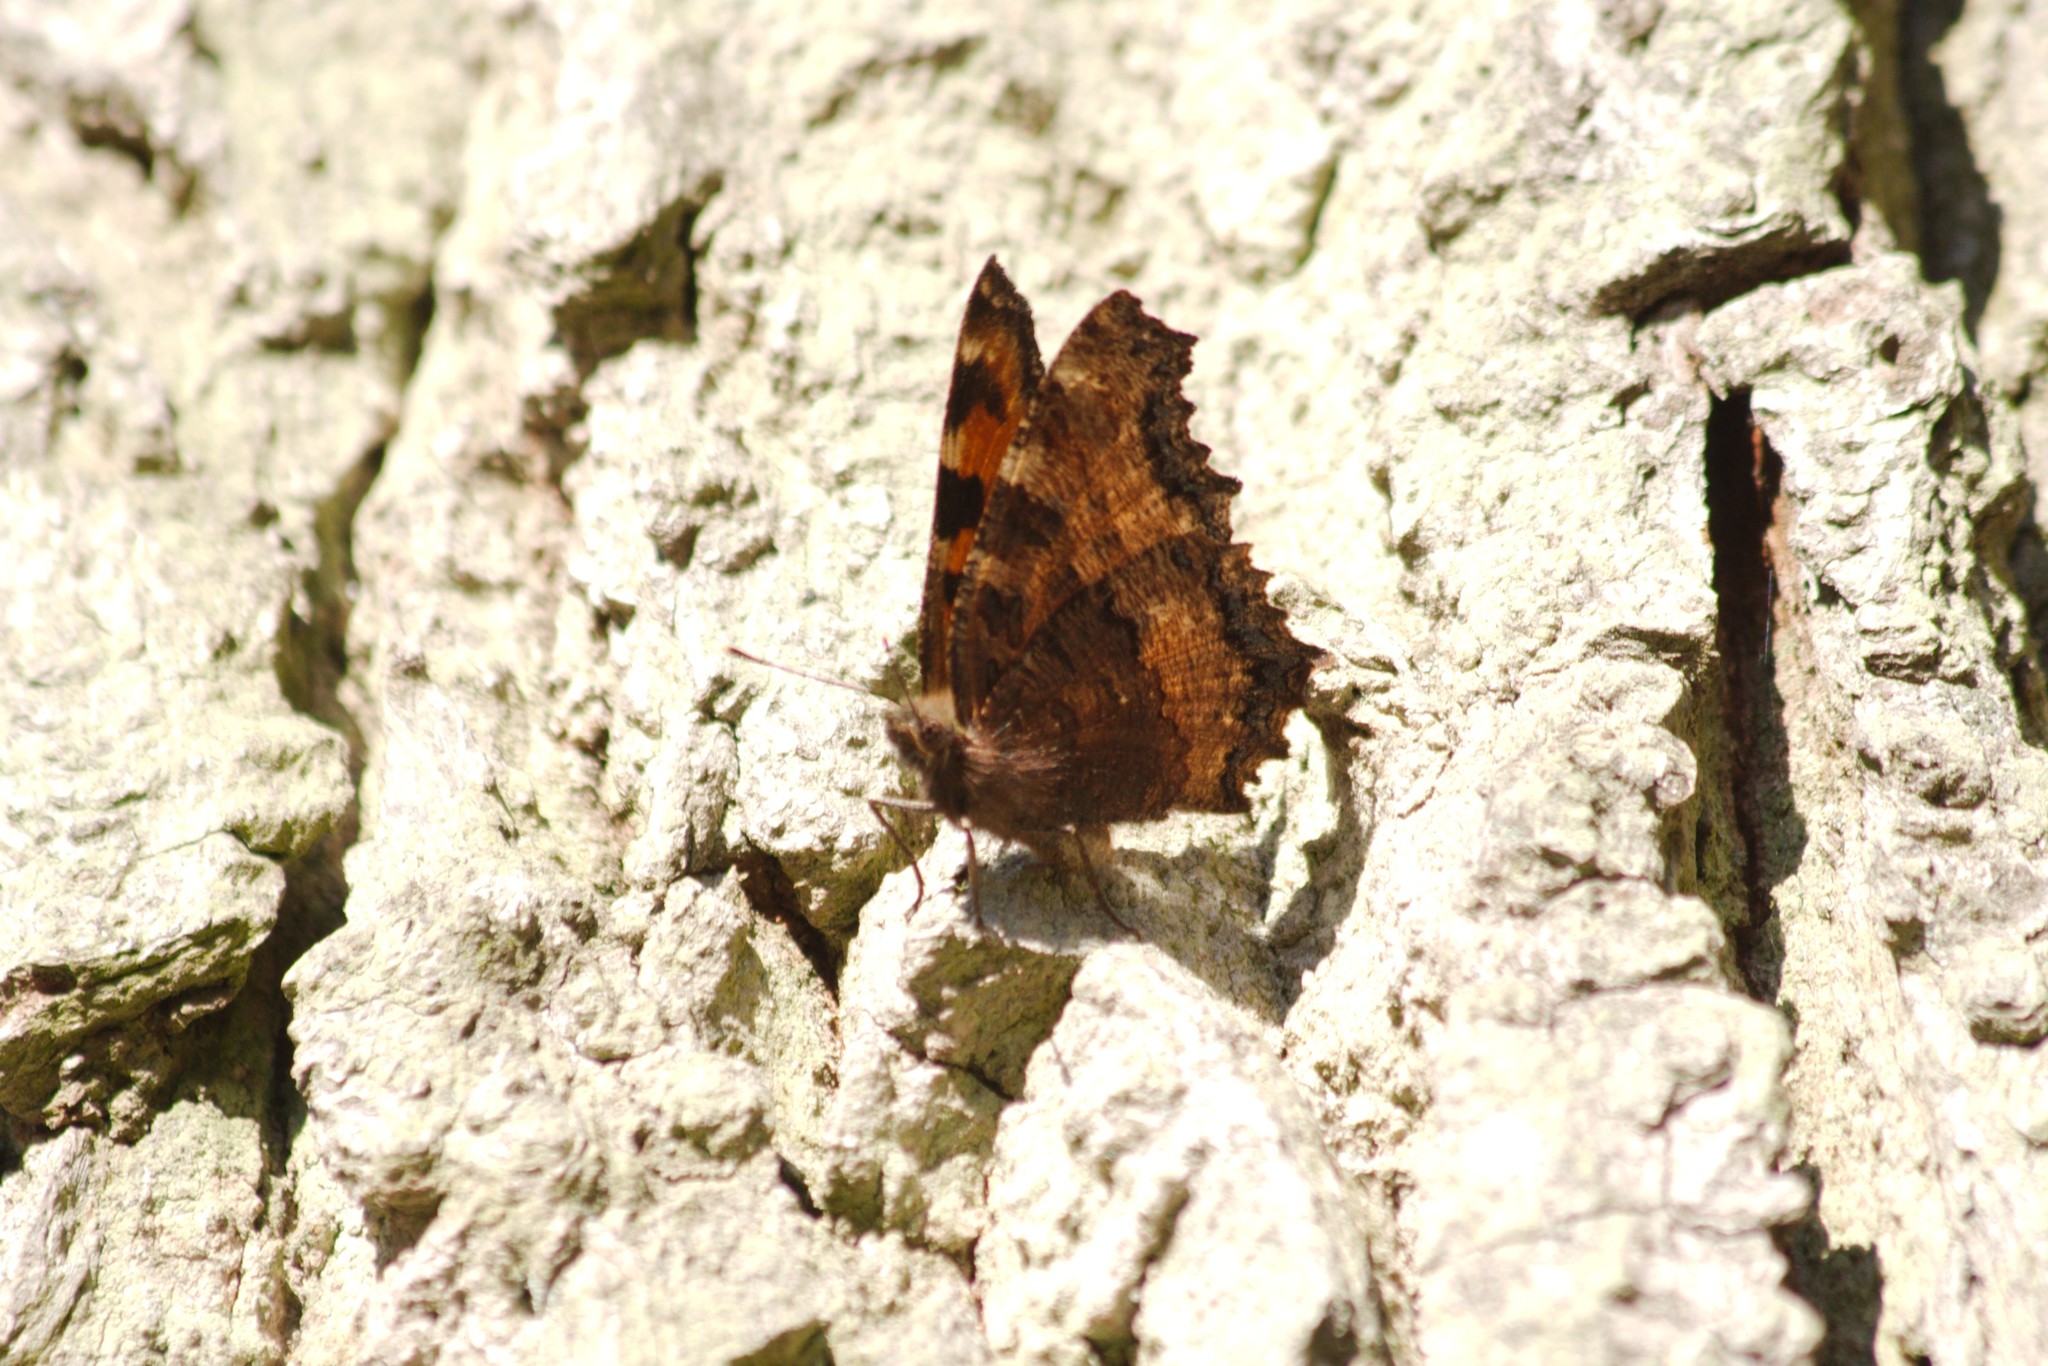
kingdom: Animalia
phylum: Arthropoda
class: Insecta
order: Lepidoptera
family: Nymphalidae
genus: Nymphalis
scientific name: Nymphalis polychloros
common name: Large tortoiseshell
